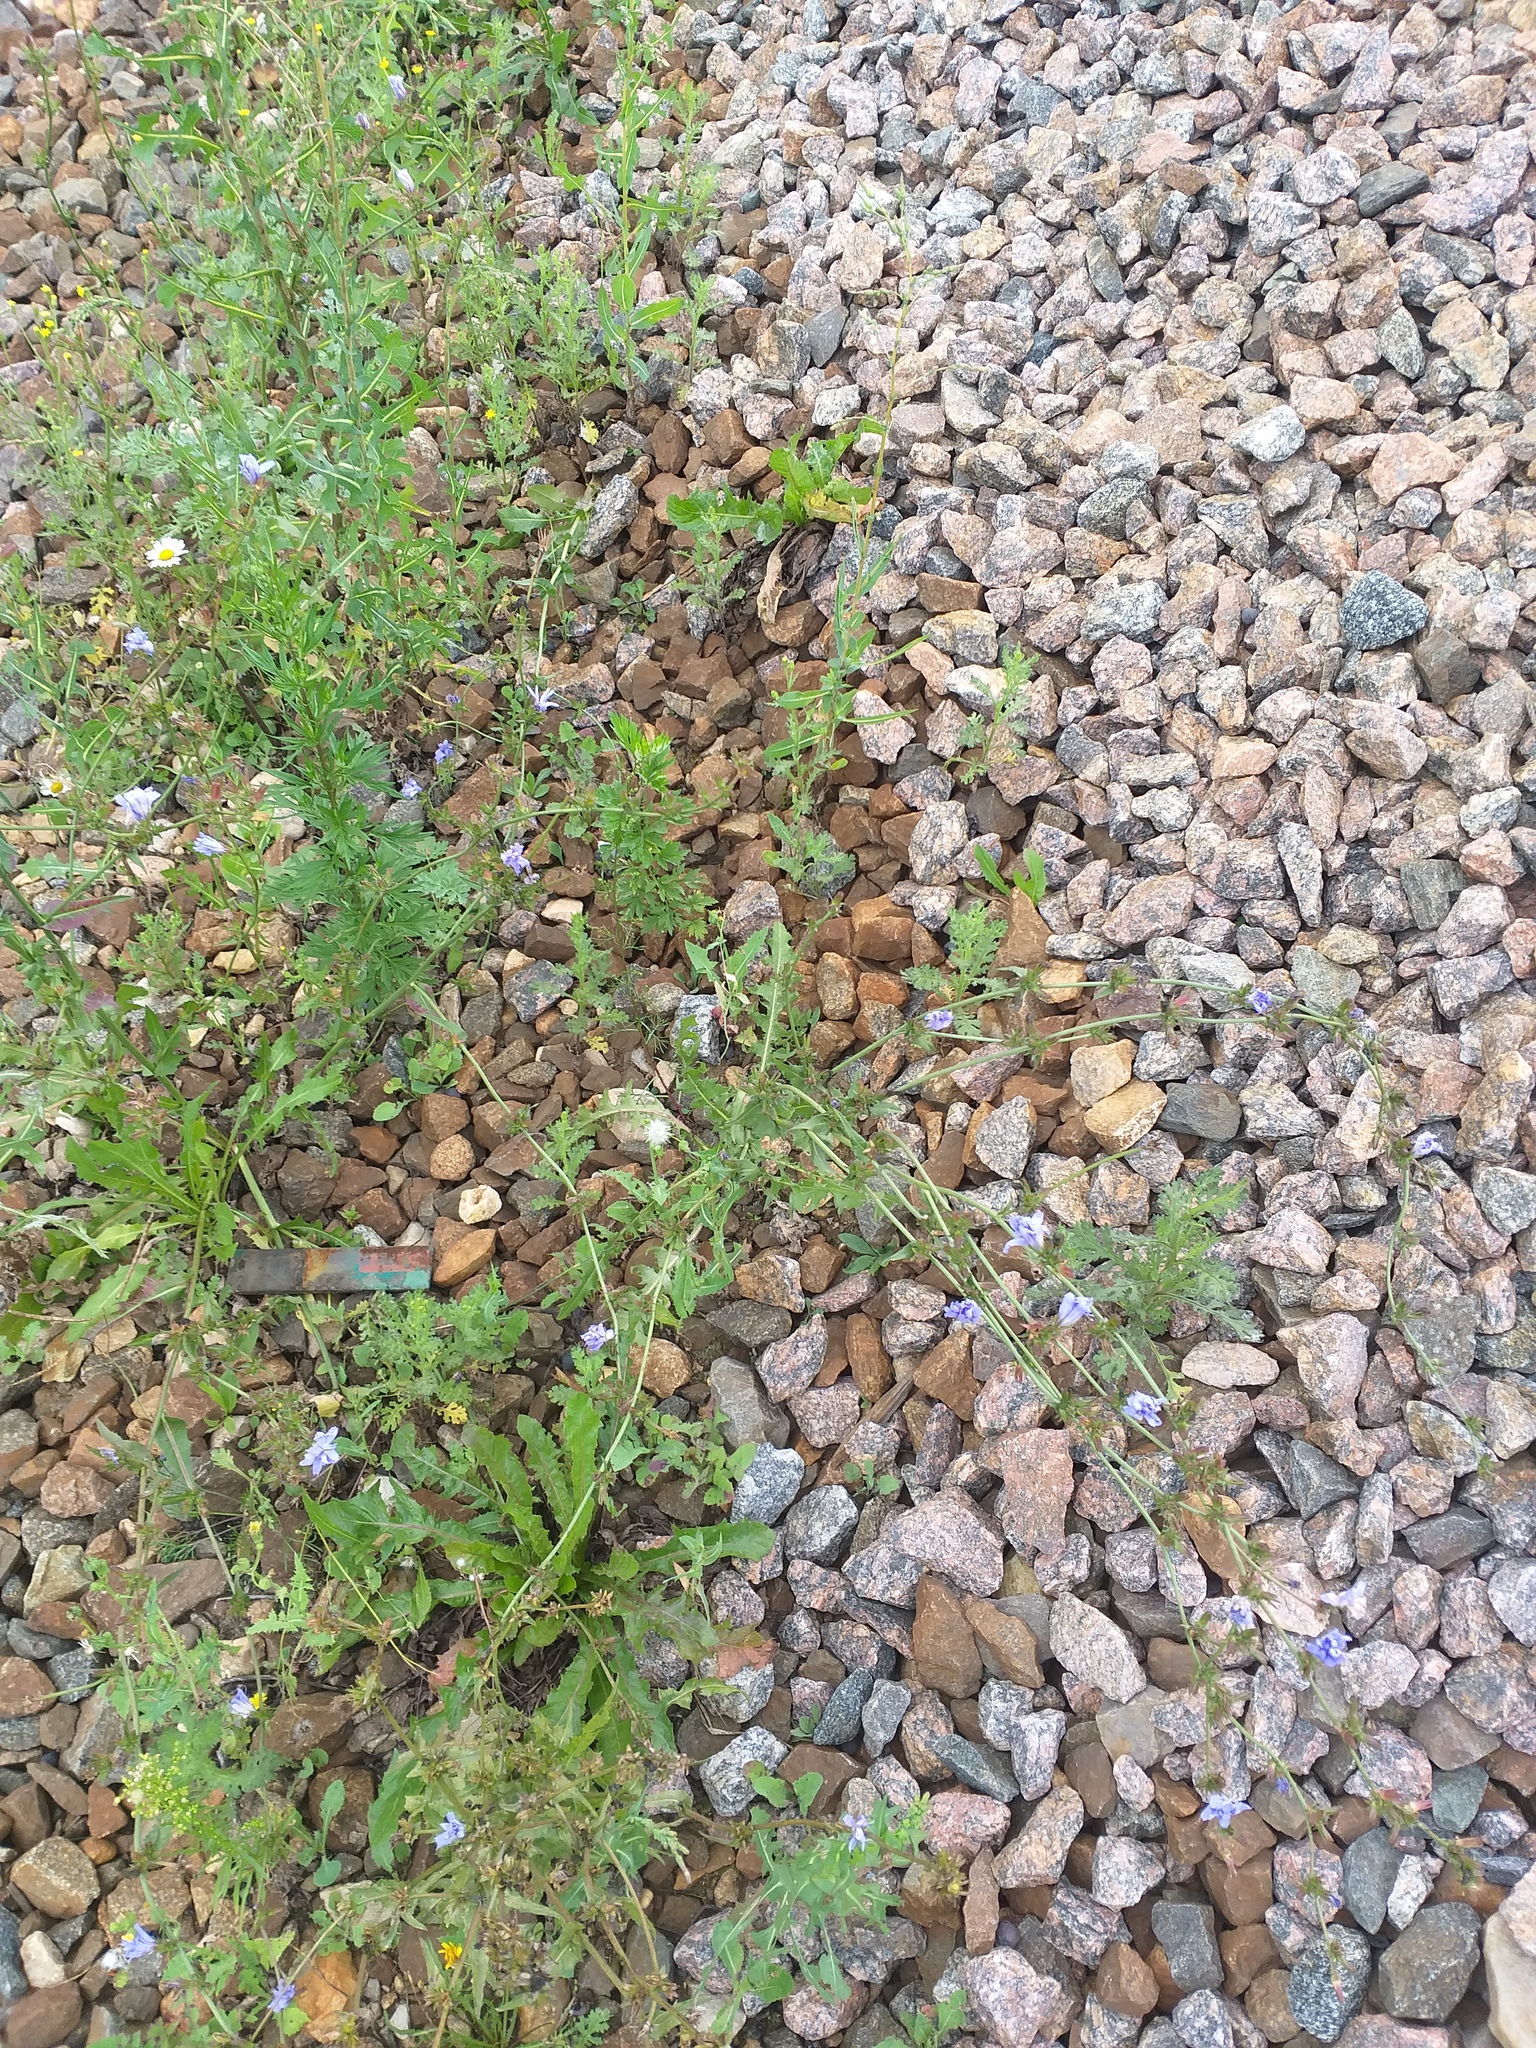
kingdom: Plantae
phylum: Tracheophyta
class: Magnoliopsida
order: Asterales
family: Asteraceae
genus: Cichorium
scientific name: Cichorium intybus
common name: Chicory
